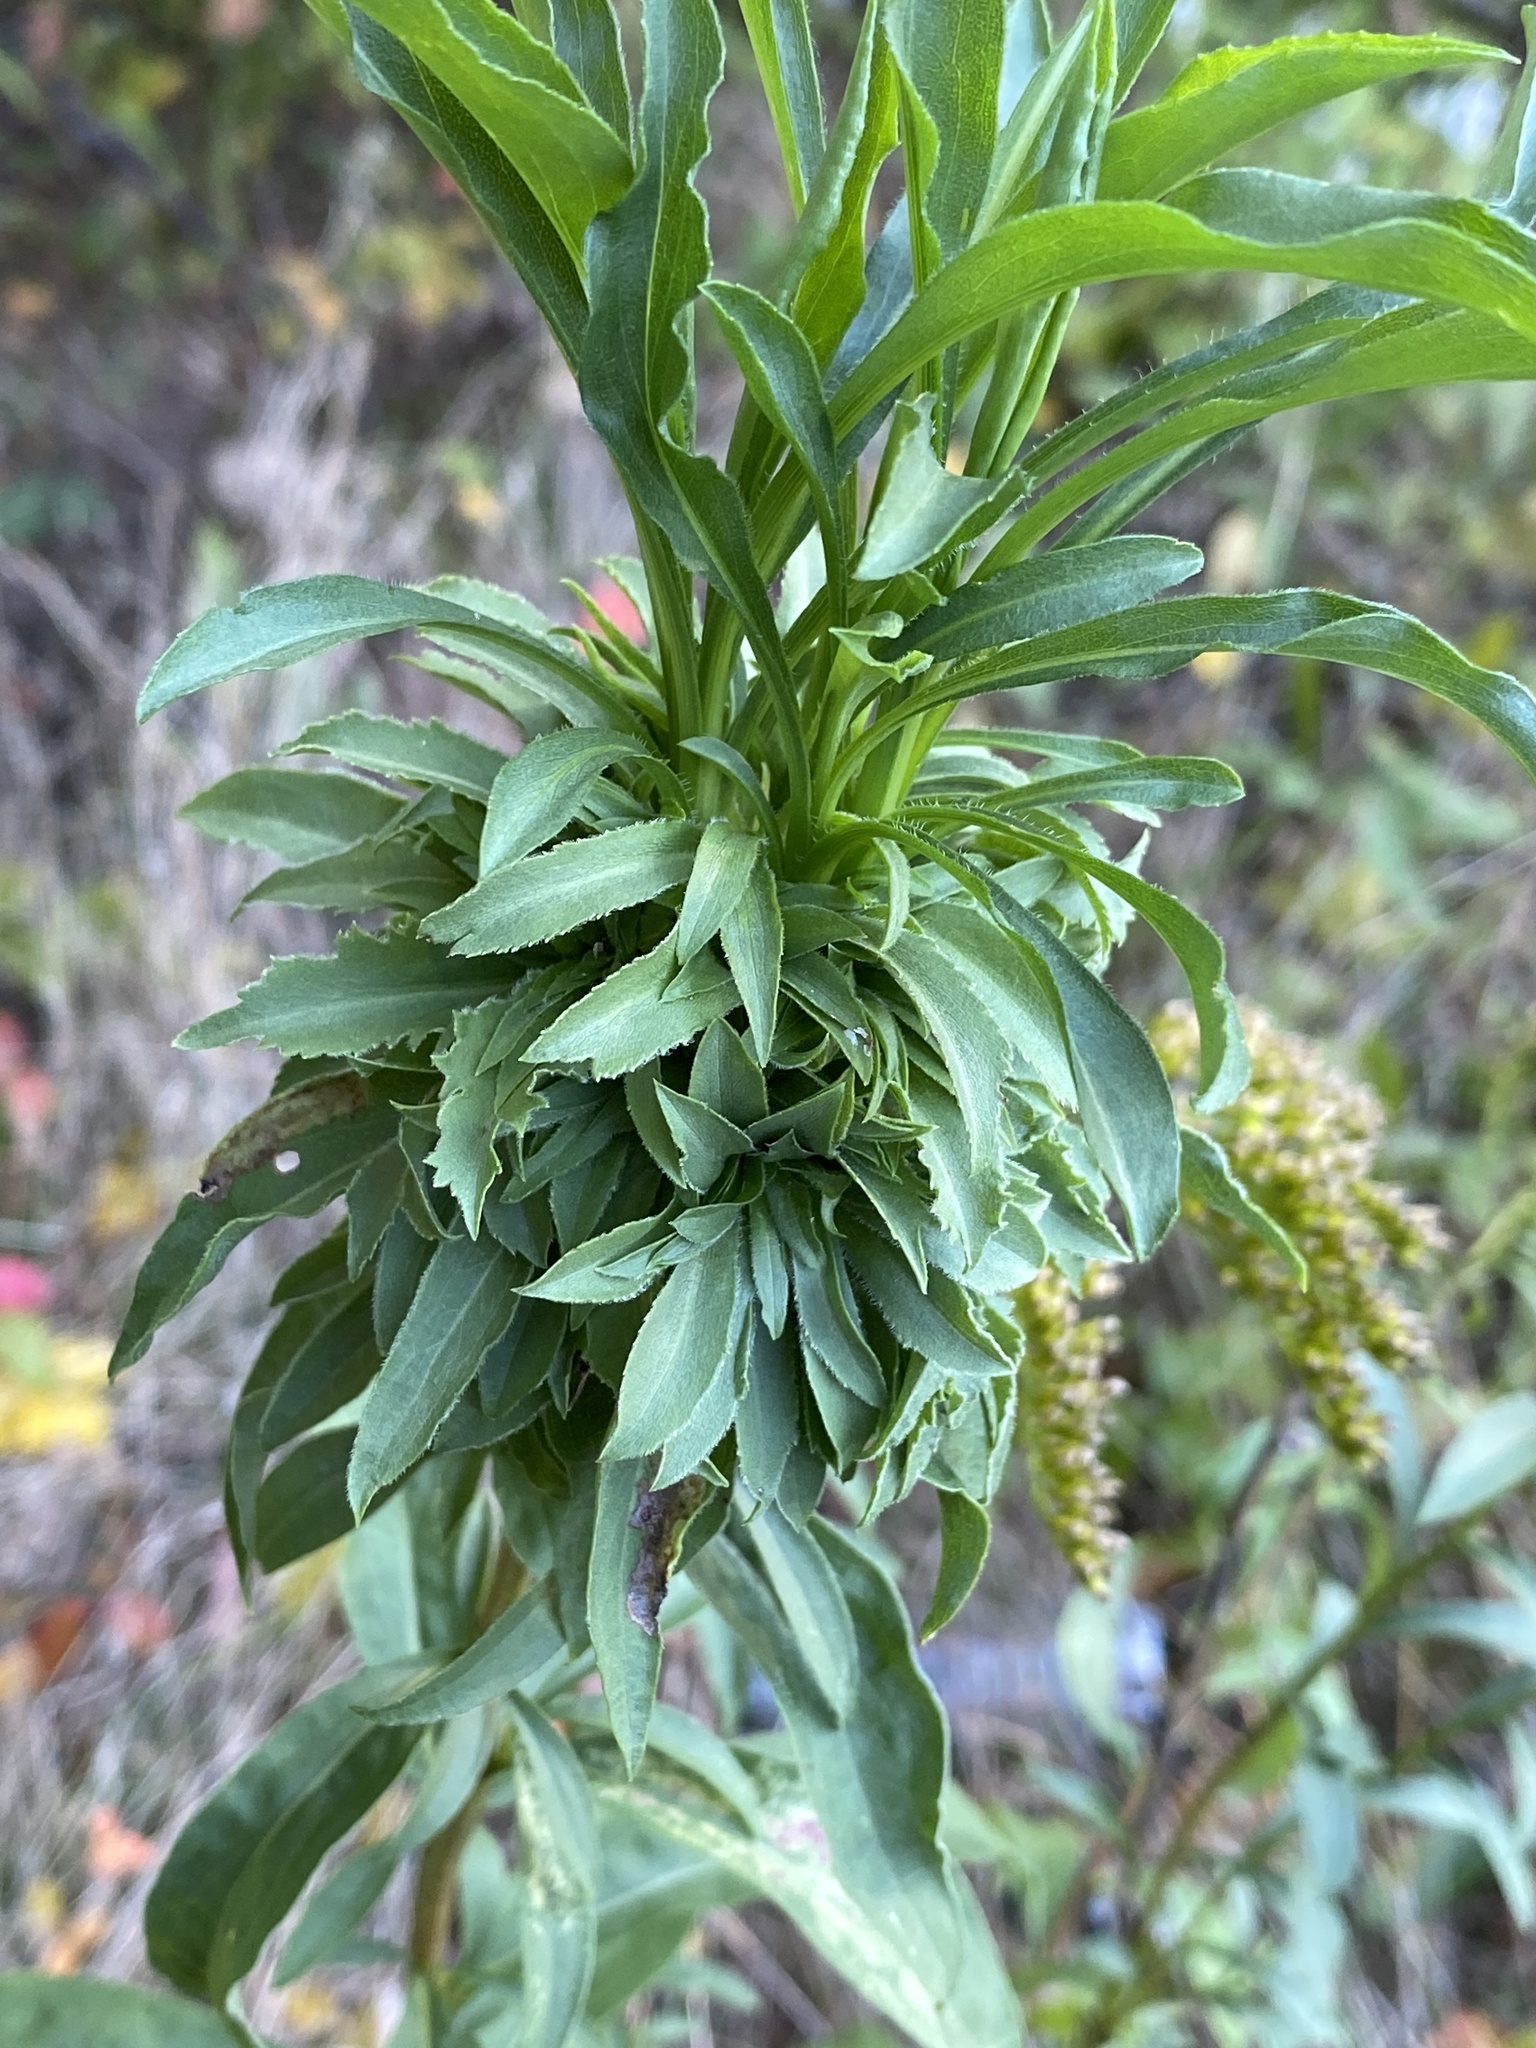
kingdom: Animalia
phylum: Arthropoda
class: Insecta
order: Diptera
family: Cecidomyiidae
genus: Asphondylia
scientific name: Asphondylia monacha
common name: Nun midge
